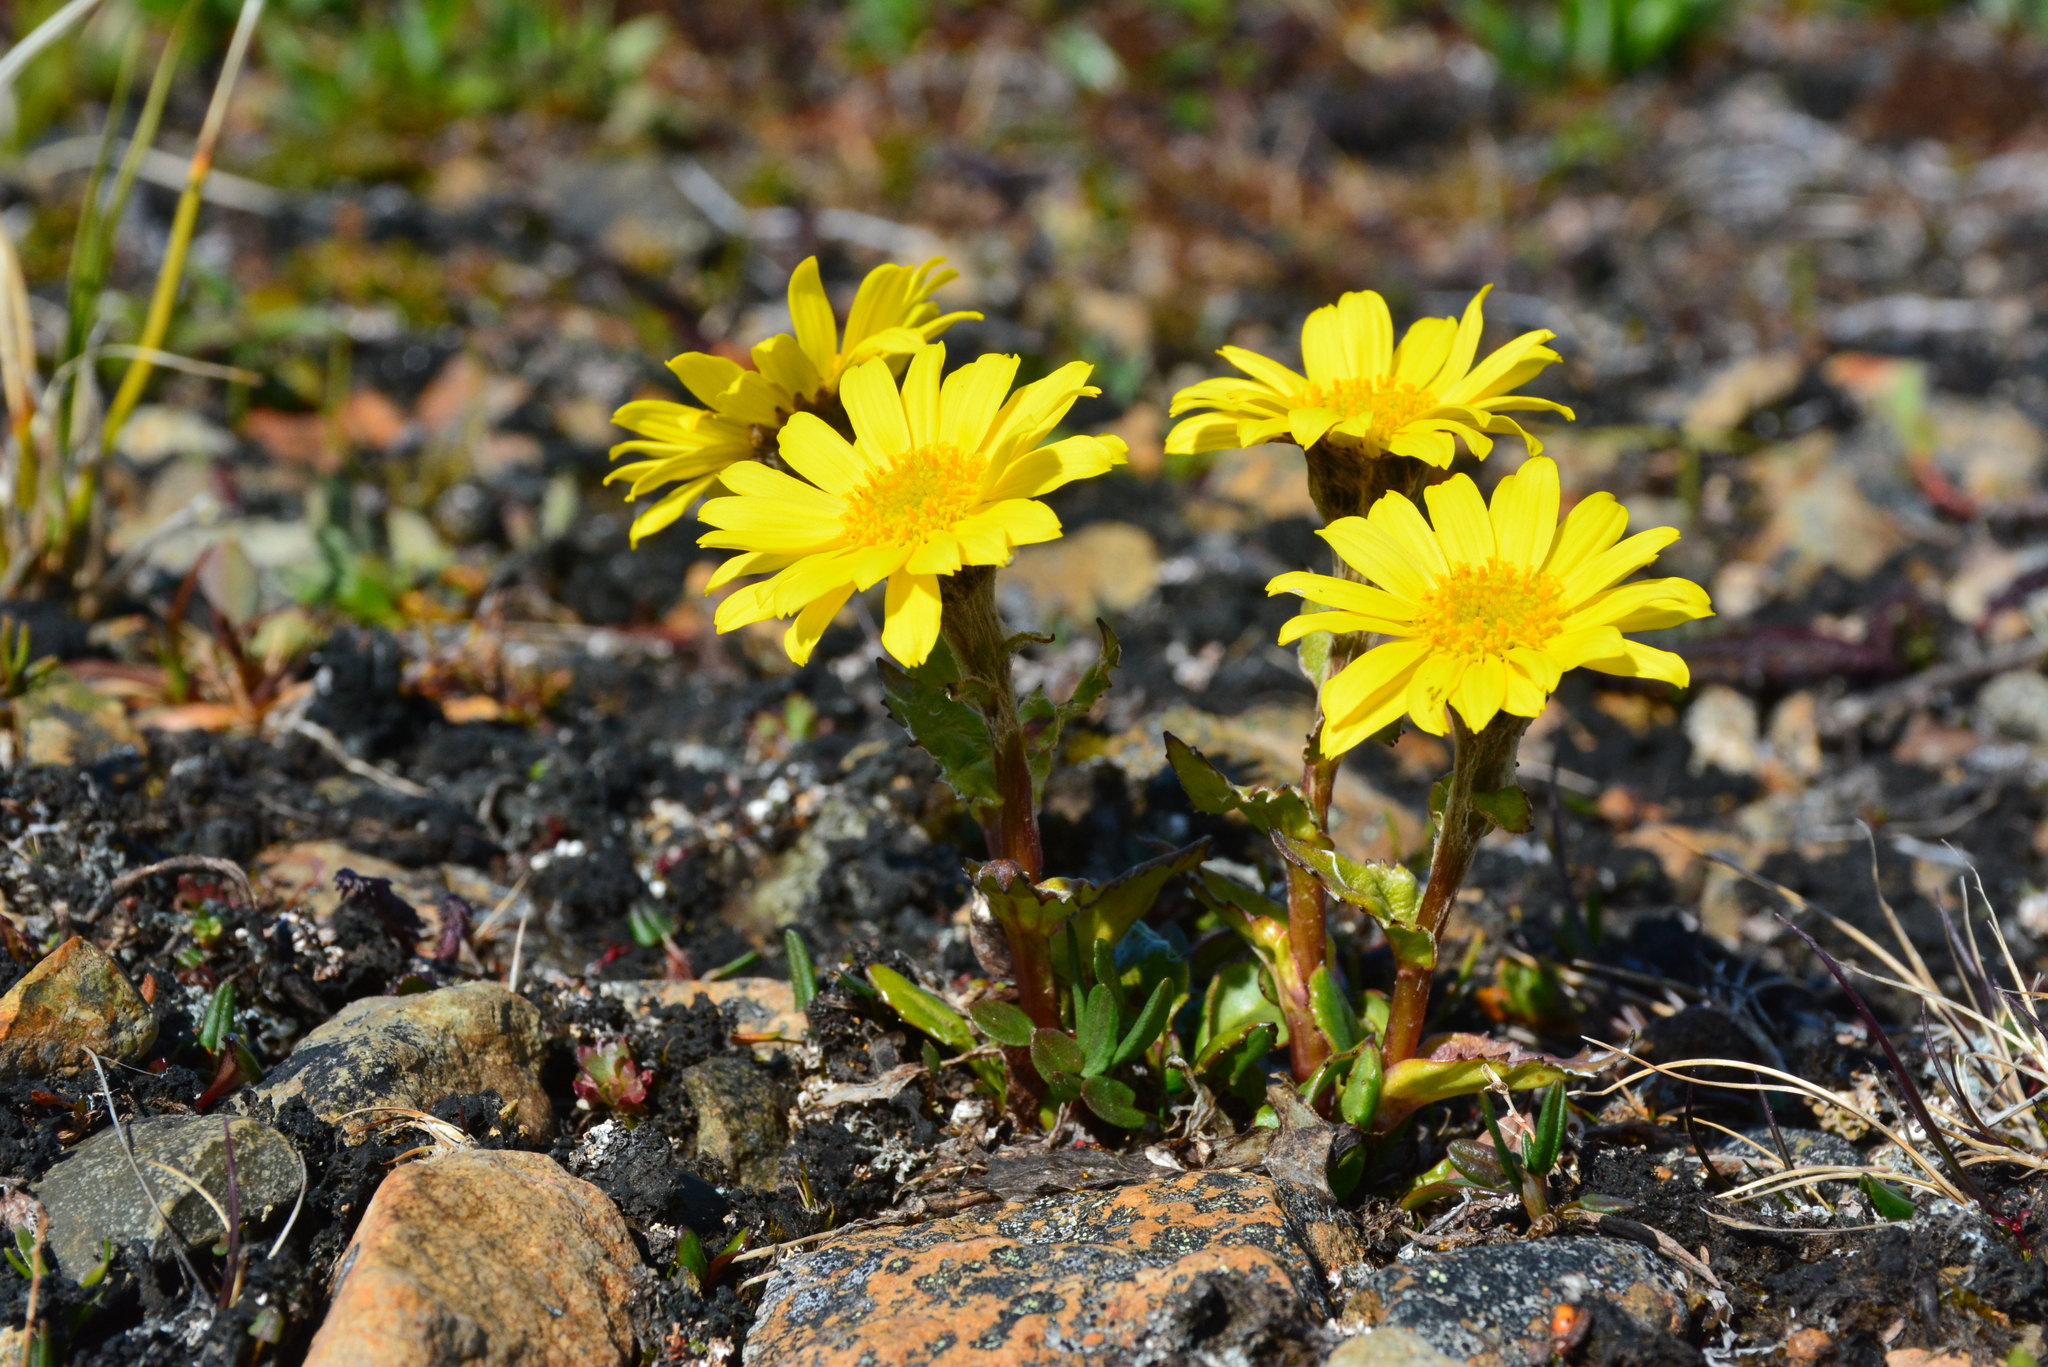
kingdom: Plantae
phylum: Tracheophyta
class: Magnoliopsida
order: Asterales
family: Asteraceae
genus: Tephroseris
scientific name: Tephroseris frigida
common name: Arctic groundsel
